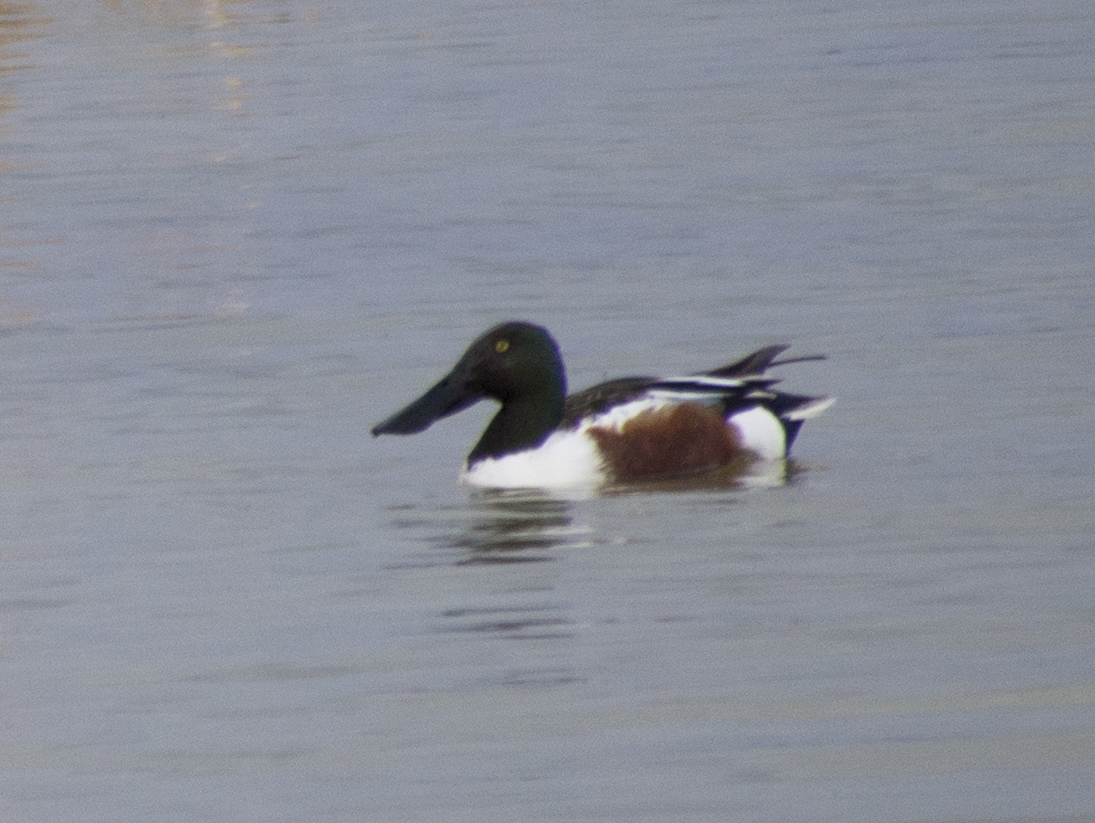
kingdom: Animalia
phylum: Chordata
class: Aves
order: Anseriformes
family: Anatidae
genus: Spatula
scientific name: Spatula clypeata
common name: Northern shoveler
